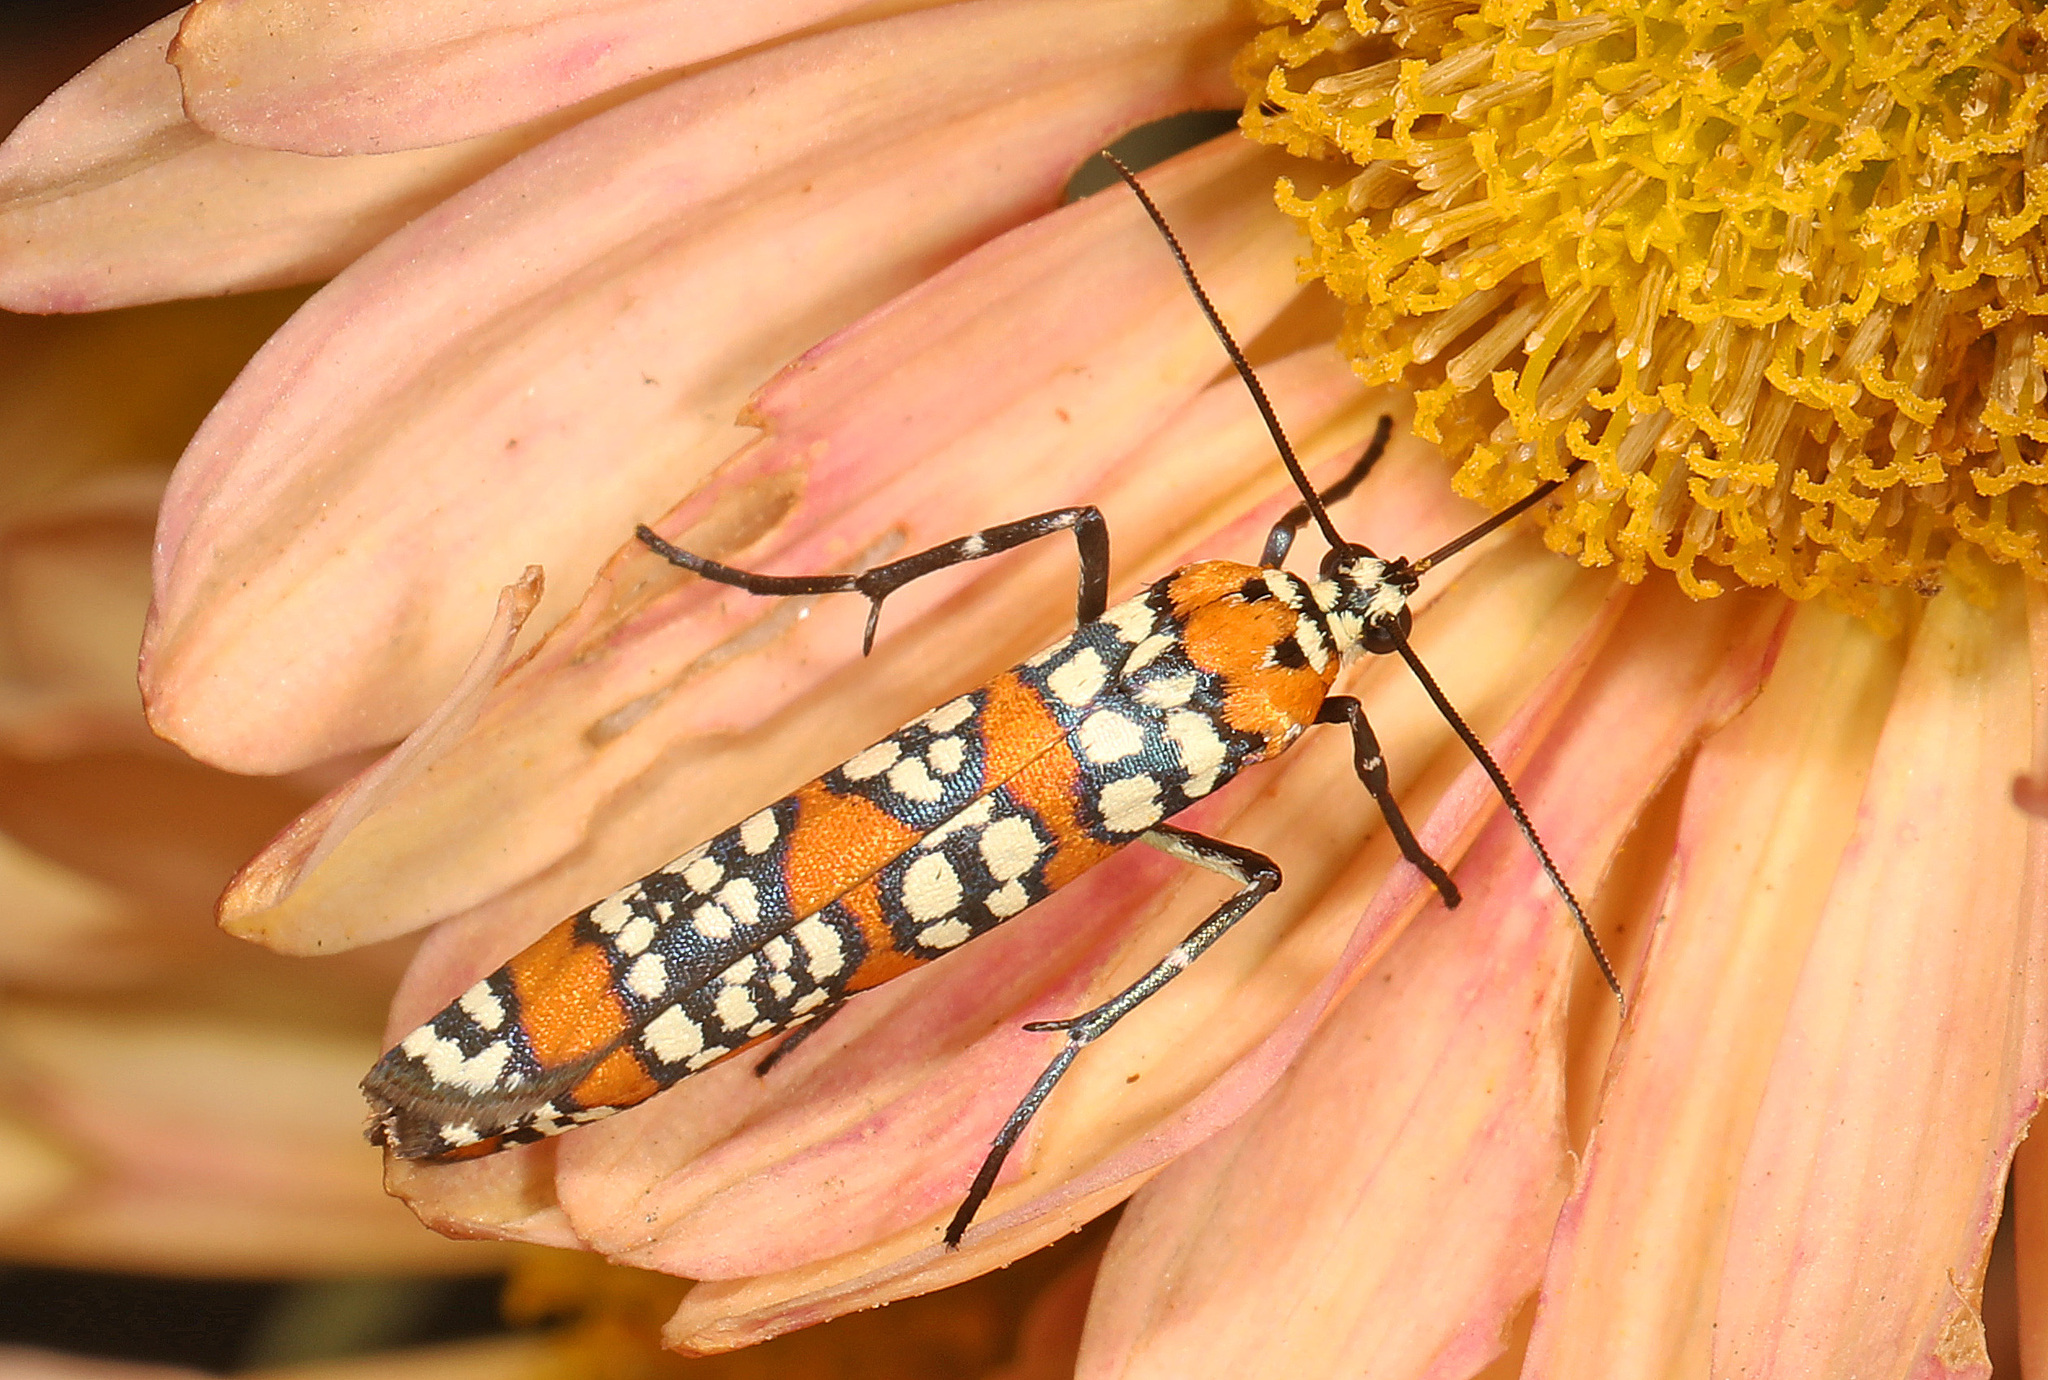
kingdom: Animalia
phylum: Arthropoda
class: Insecta
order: Lepidoptera
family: Attevidae
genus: Atteva
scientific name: Atteva punctella
